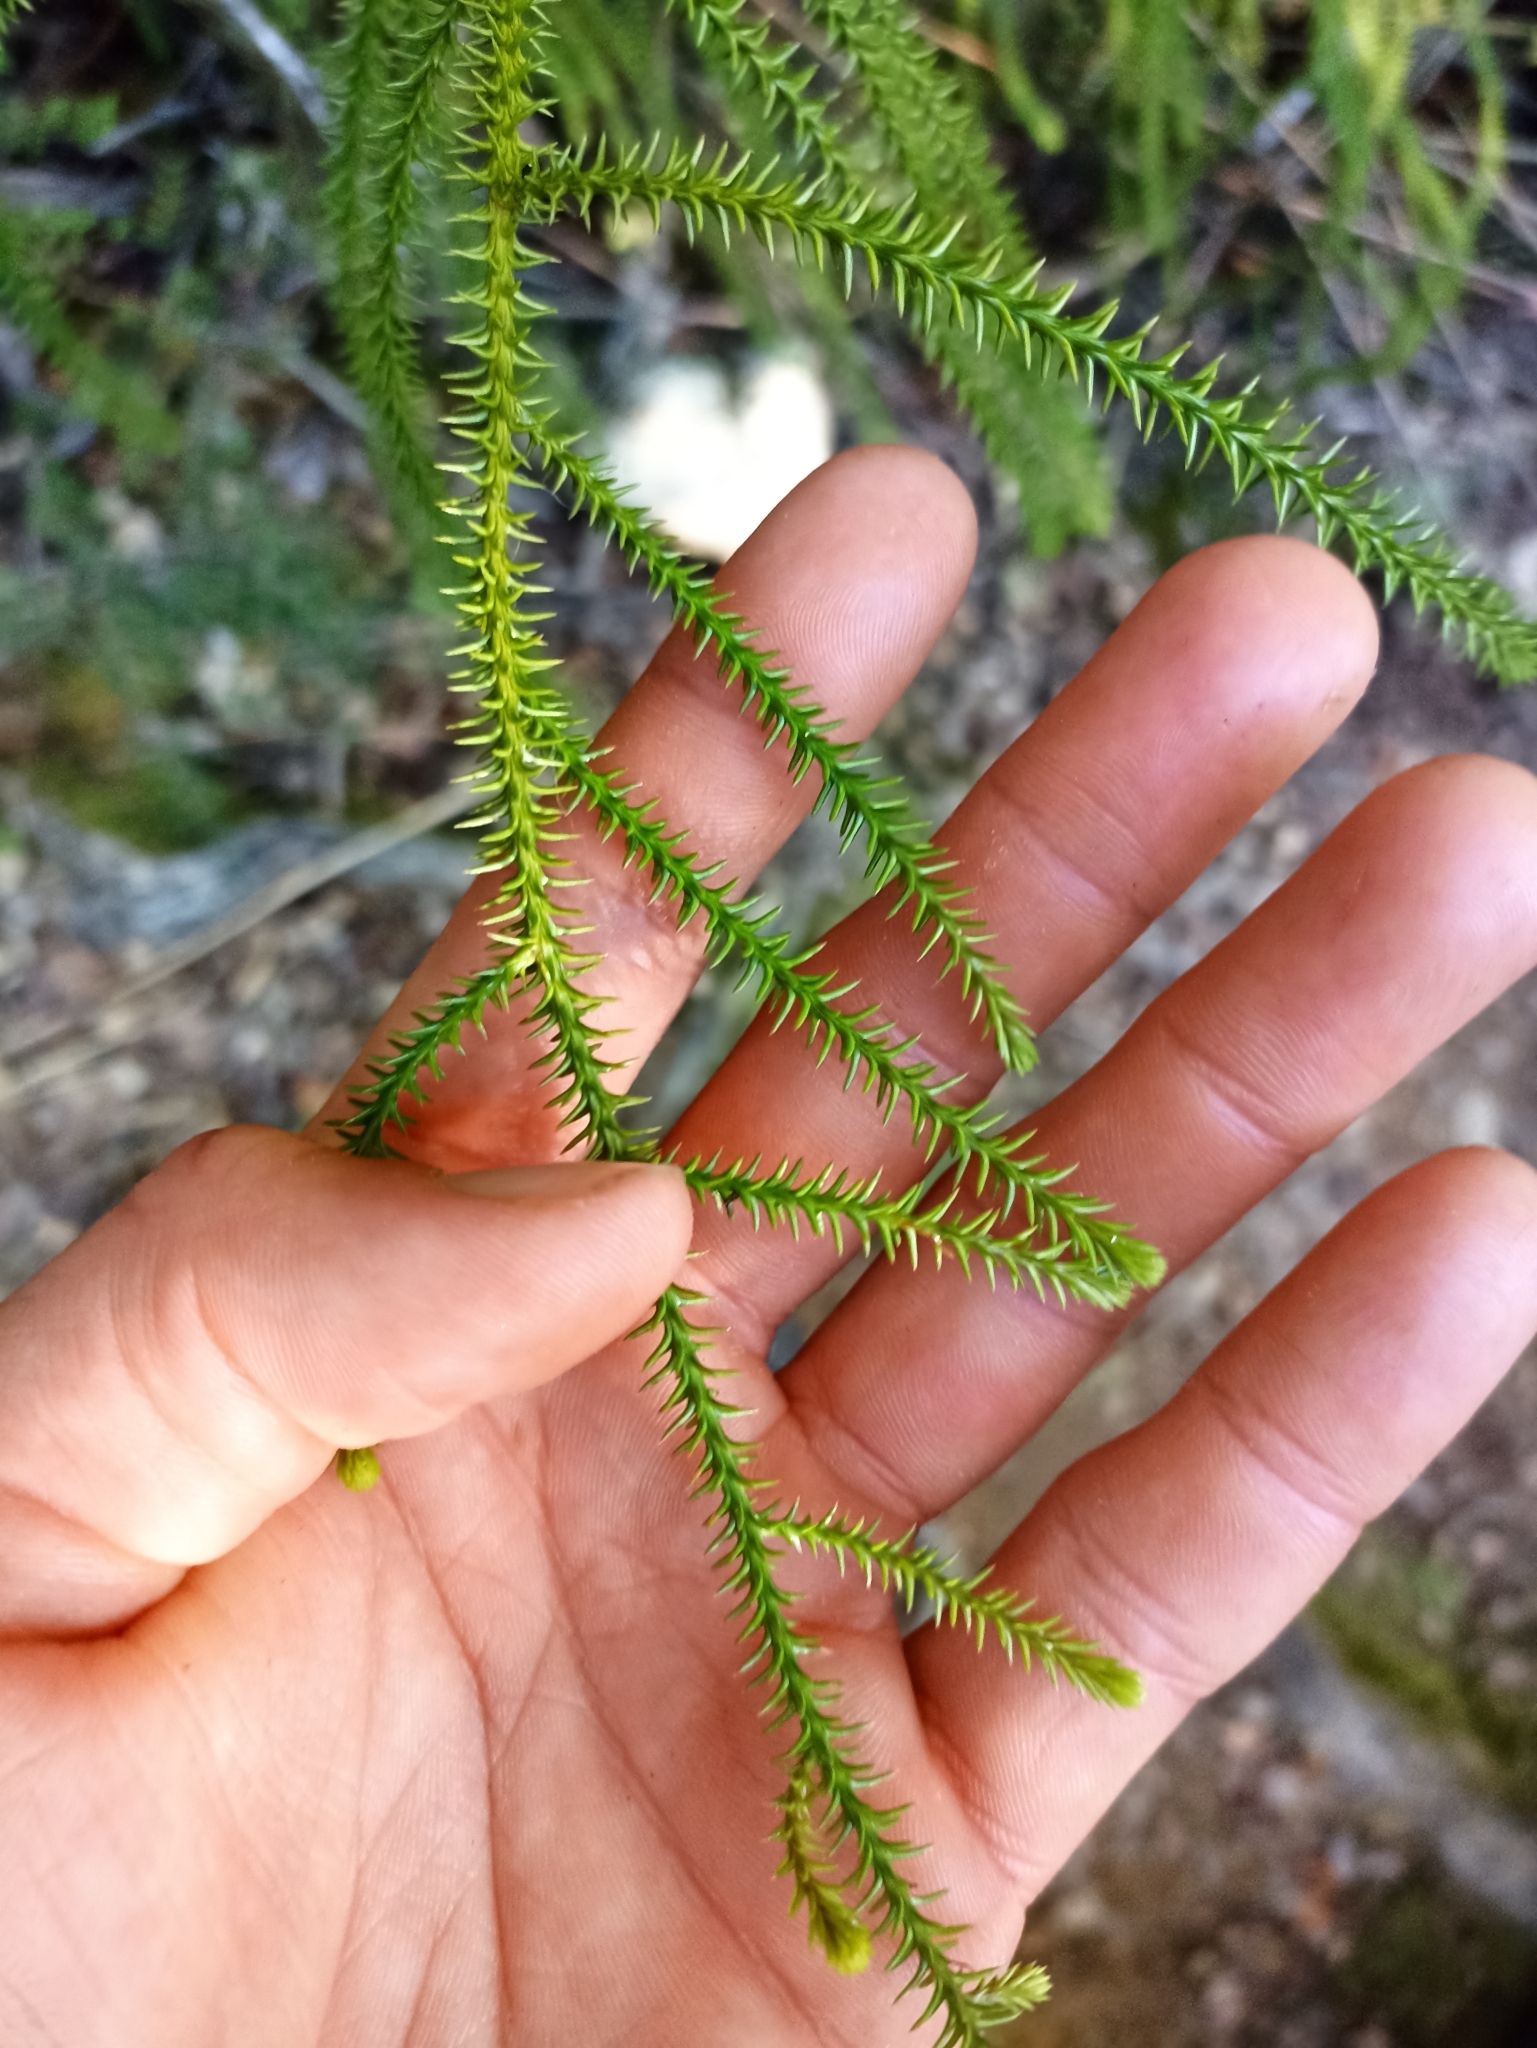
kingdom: Plantae
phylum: Tracheophyta
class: Pinopsida
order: Pinales
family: Podocarpaceae
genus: Dacrydium
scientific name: Dacrydium cupressinum
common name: Red pine
